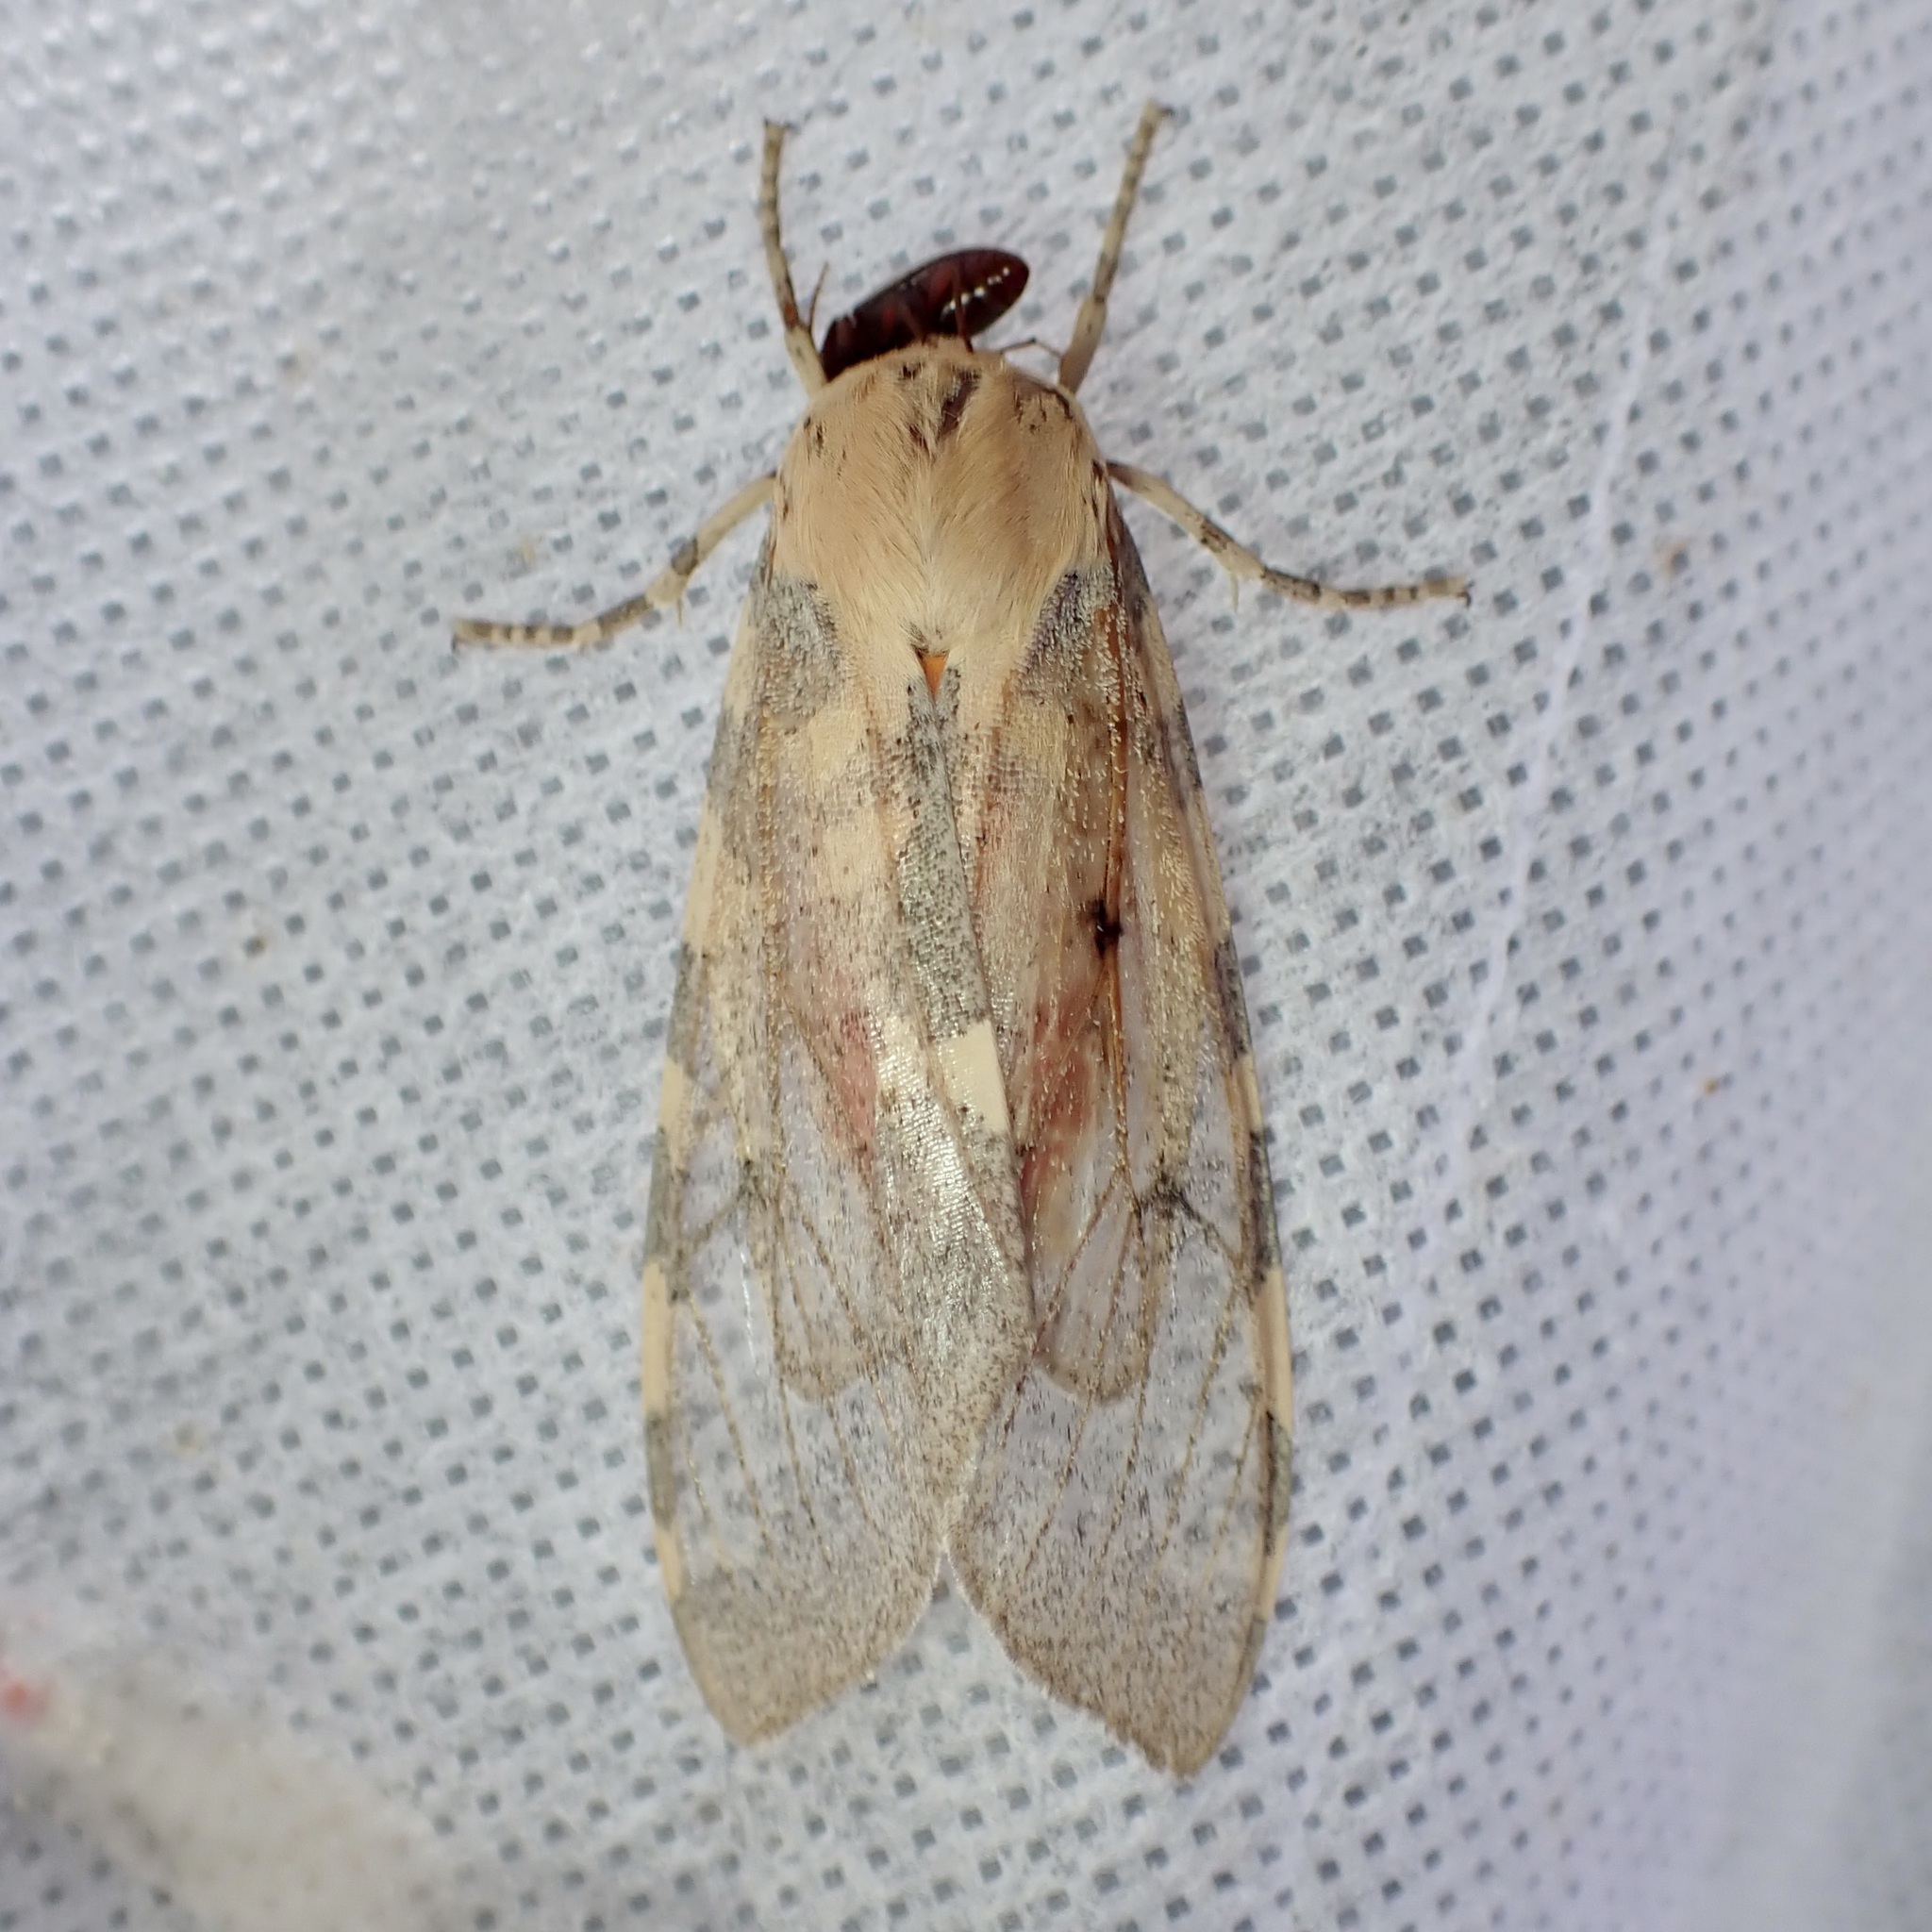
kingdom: Animalia
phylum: Arthropoda
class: Insecta
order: Lepidoptera
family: Erebidae
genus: Hemihyalea
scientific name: Hemihyalea edwardsii
